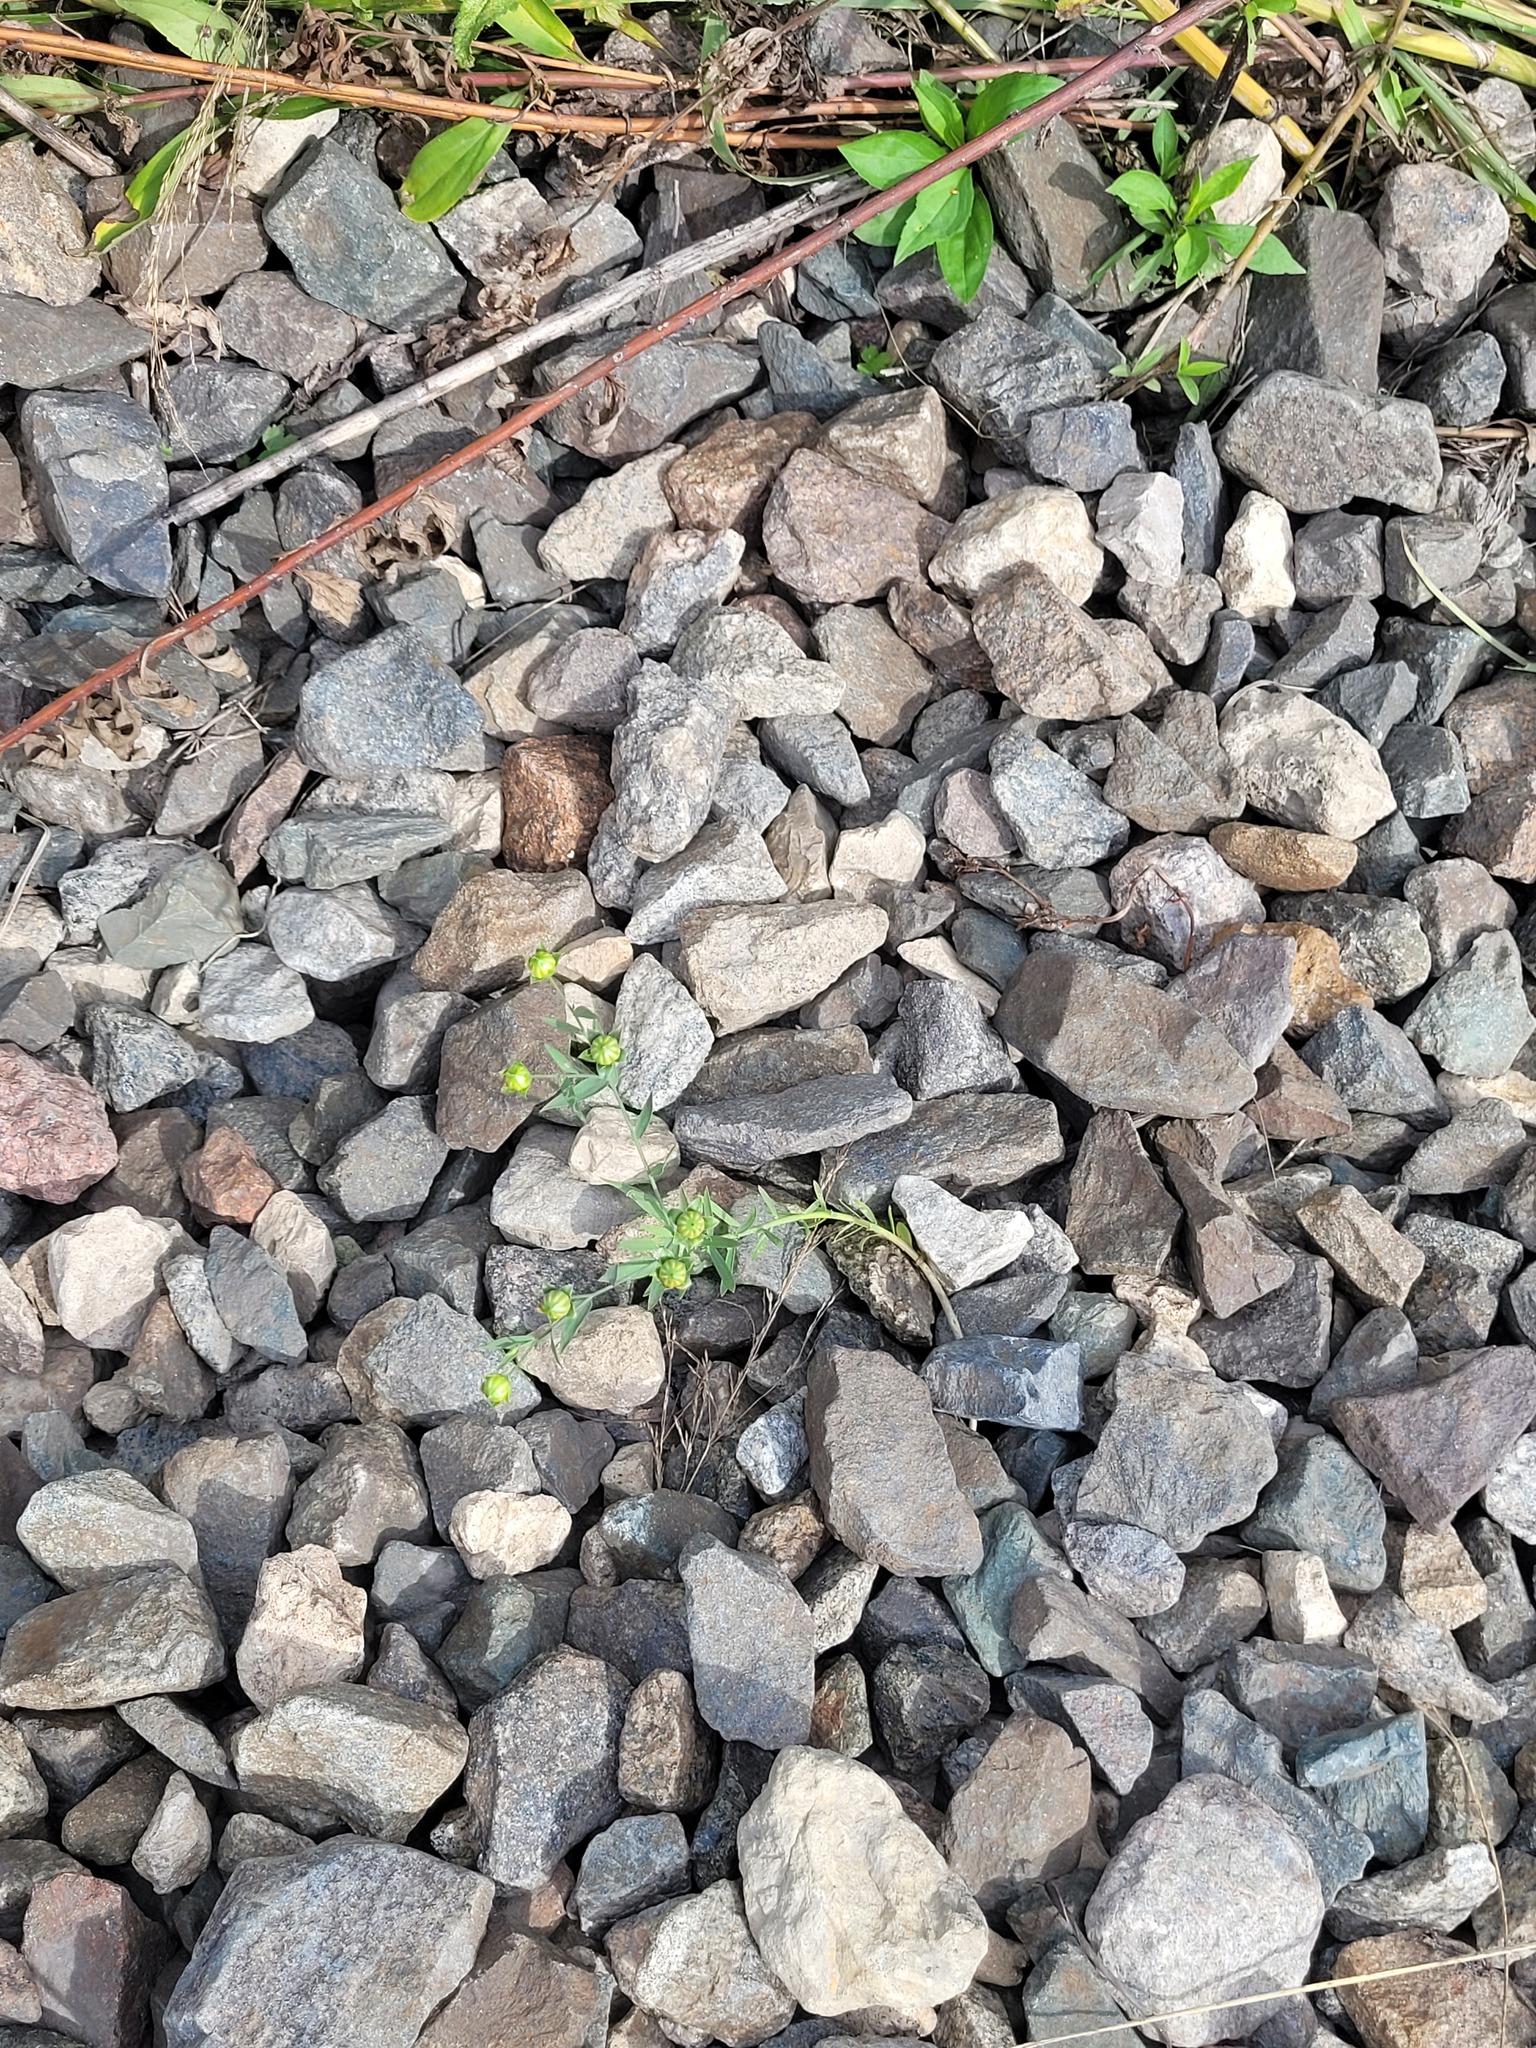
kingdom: Plantae
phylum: Tracheophyta
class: Magnoliopsida
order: Malpighiales
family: Linaceae
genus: Linum
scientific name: Linum usitatissimum
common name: Flax
